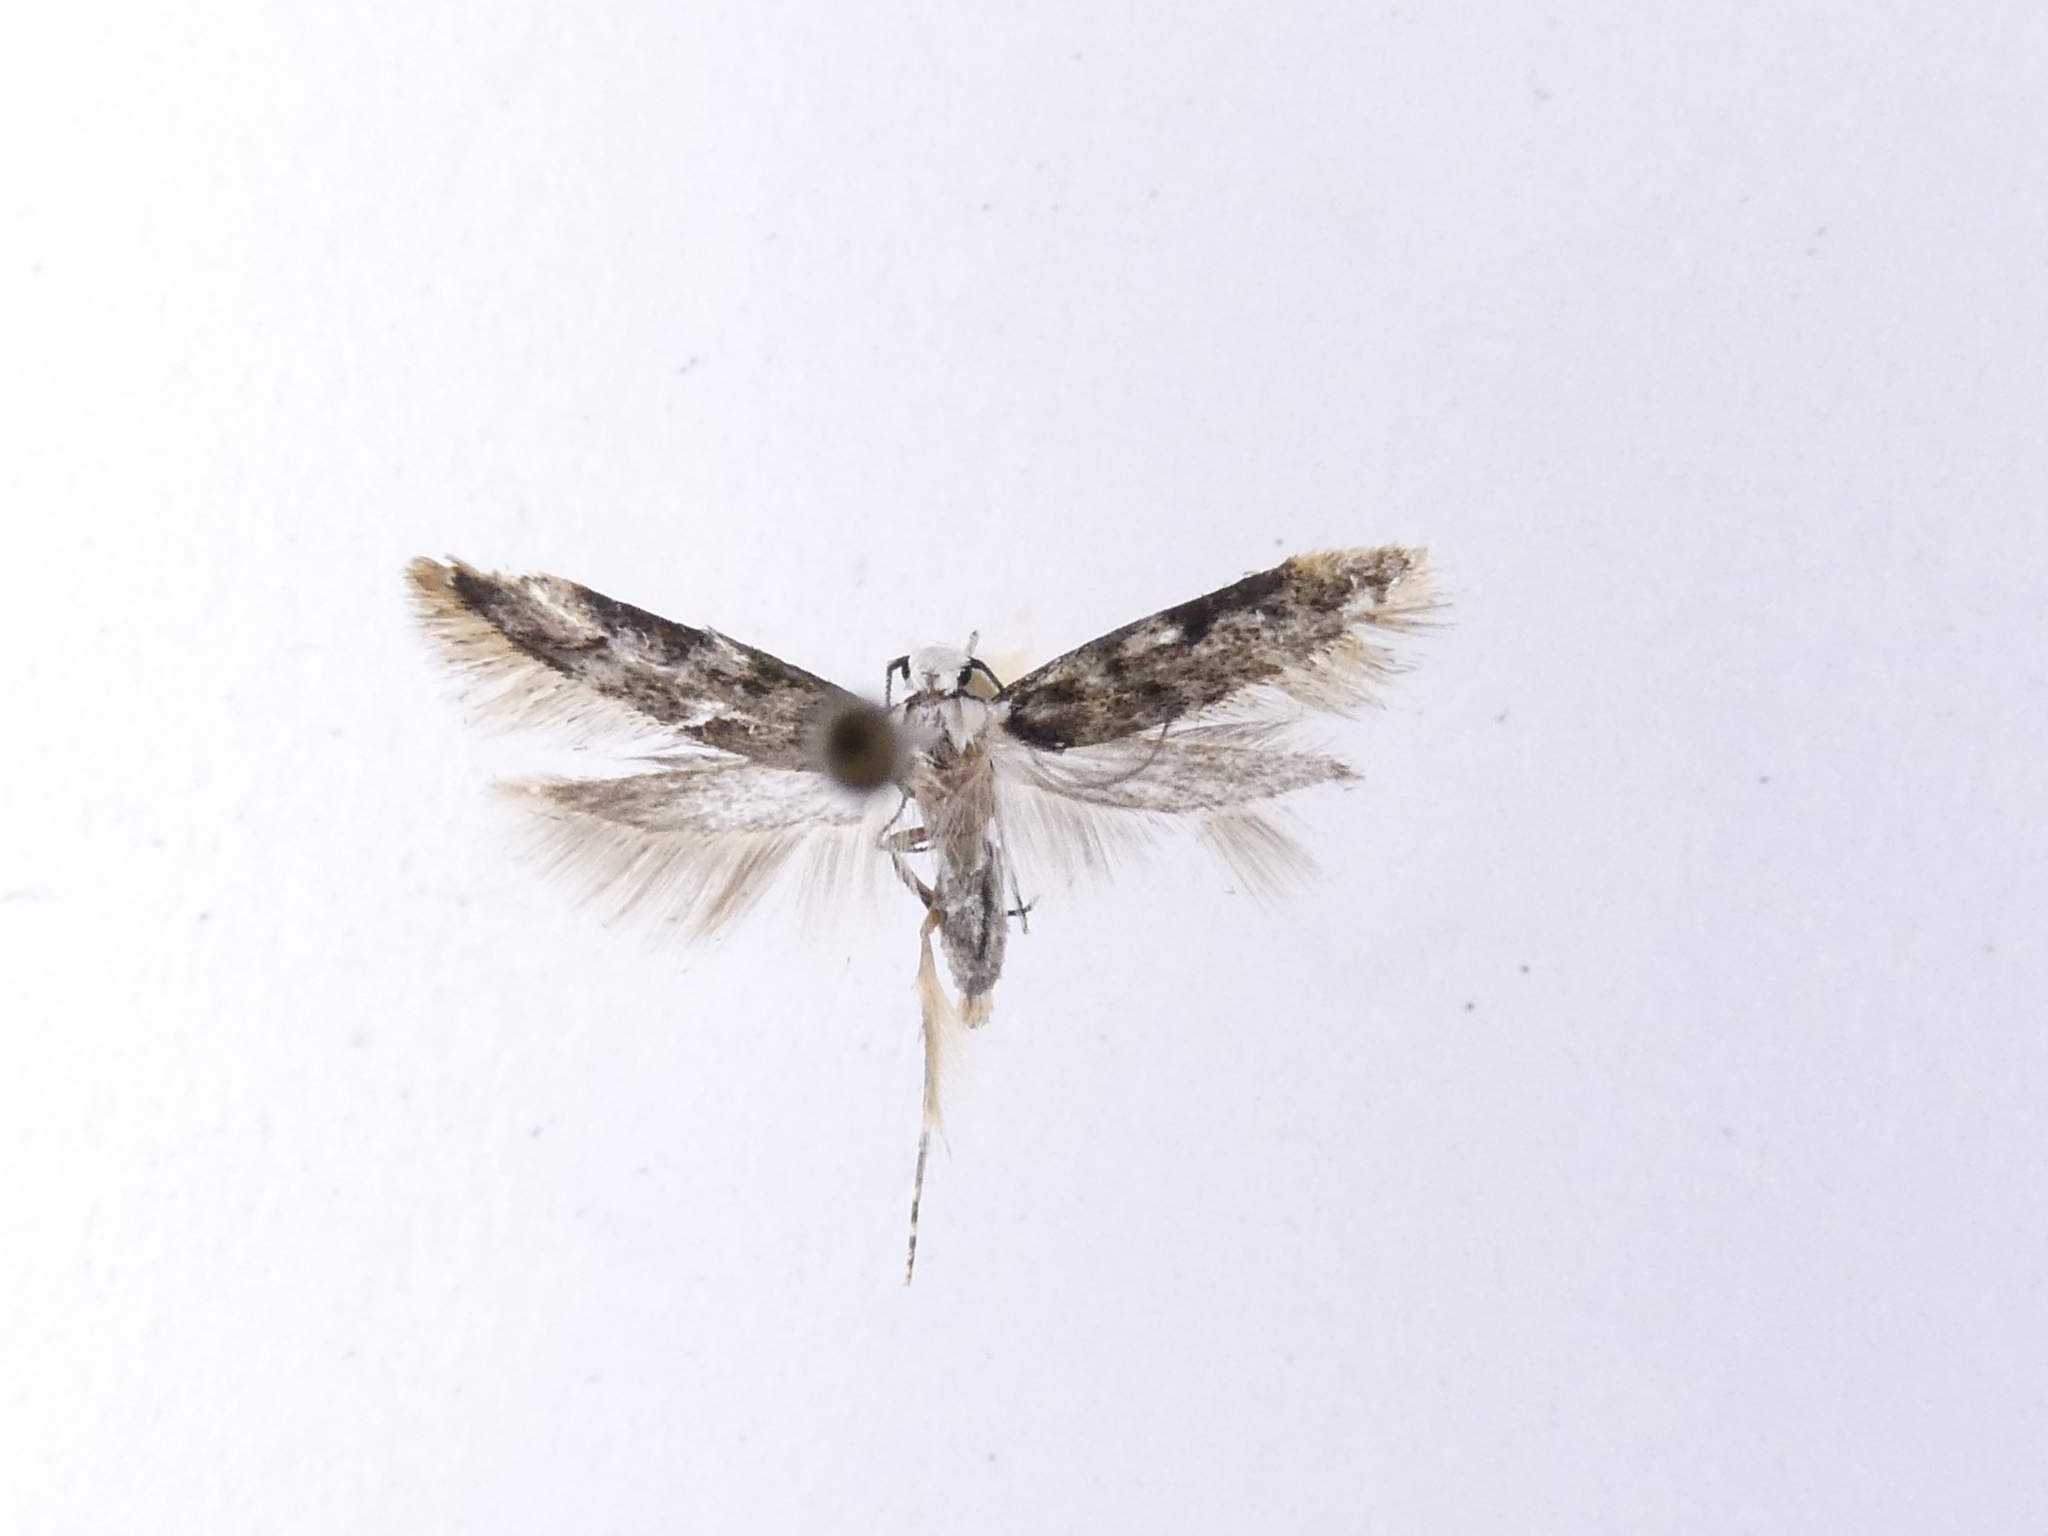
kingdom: Animalia
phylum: Arthropoda
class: Insecta
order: Lepidoptera
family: Oecophoridae
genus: Endrosis
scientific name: Endrosis sarcitrella
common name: White-shouldered house moth
